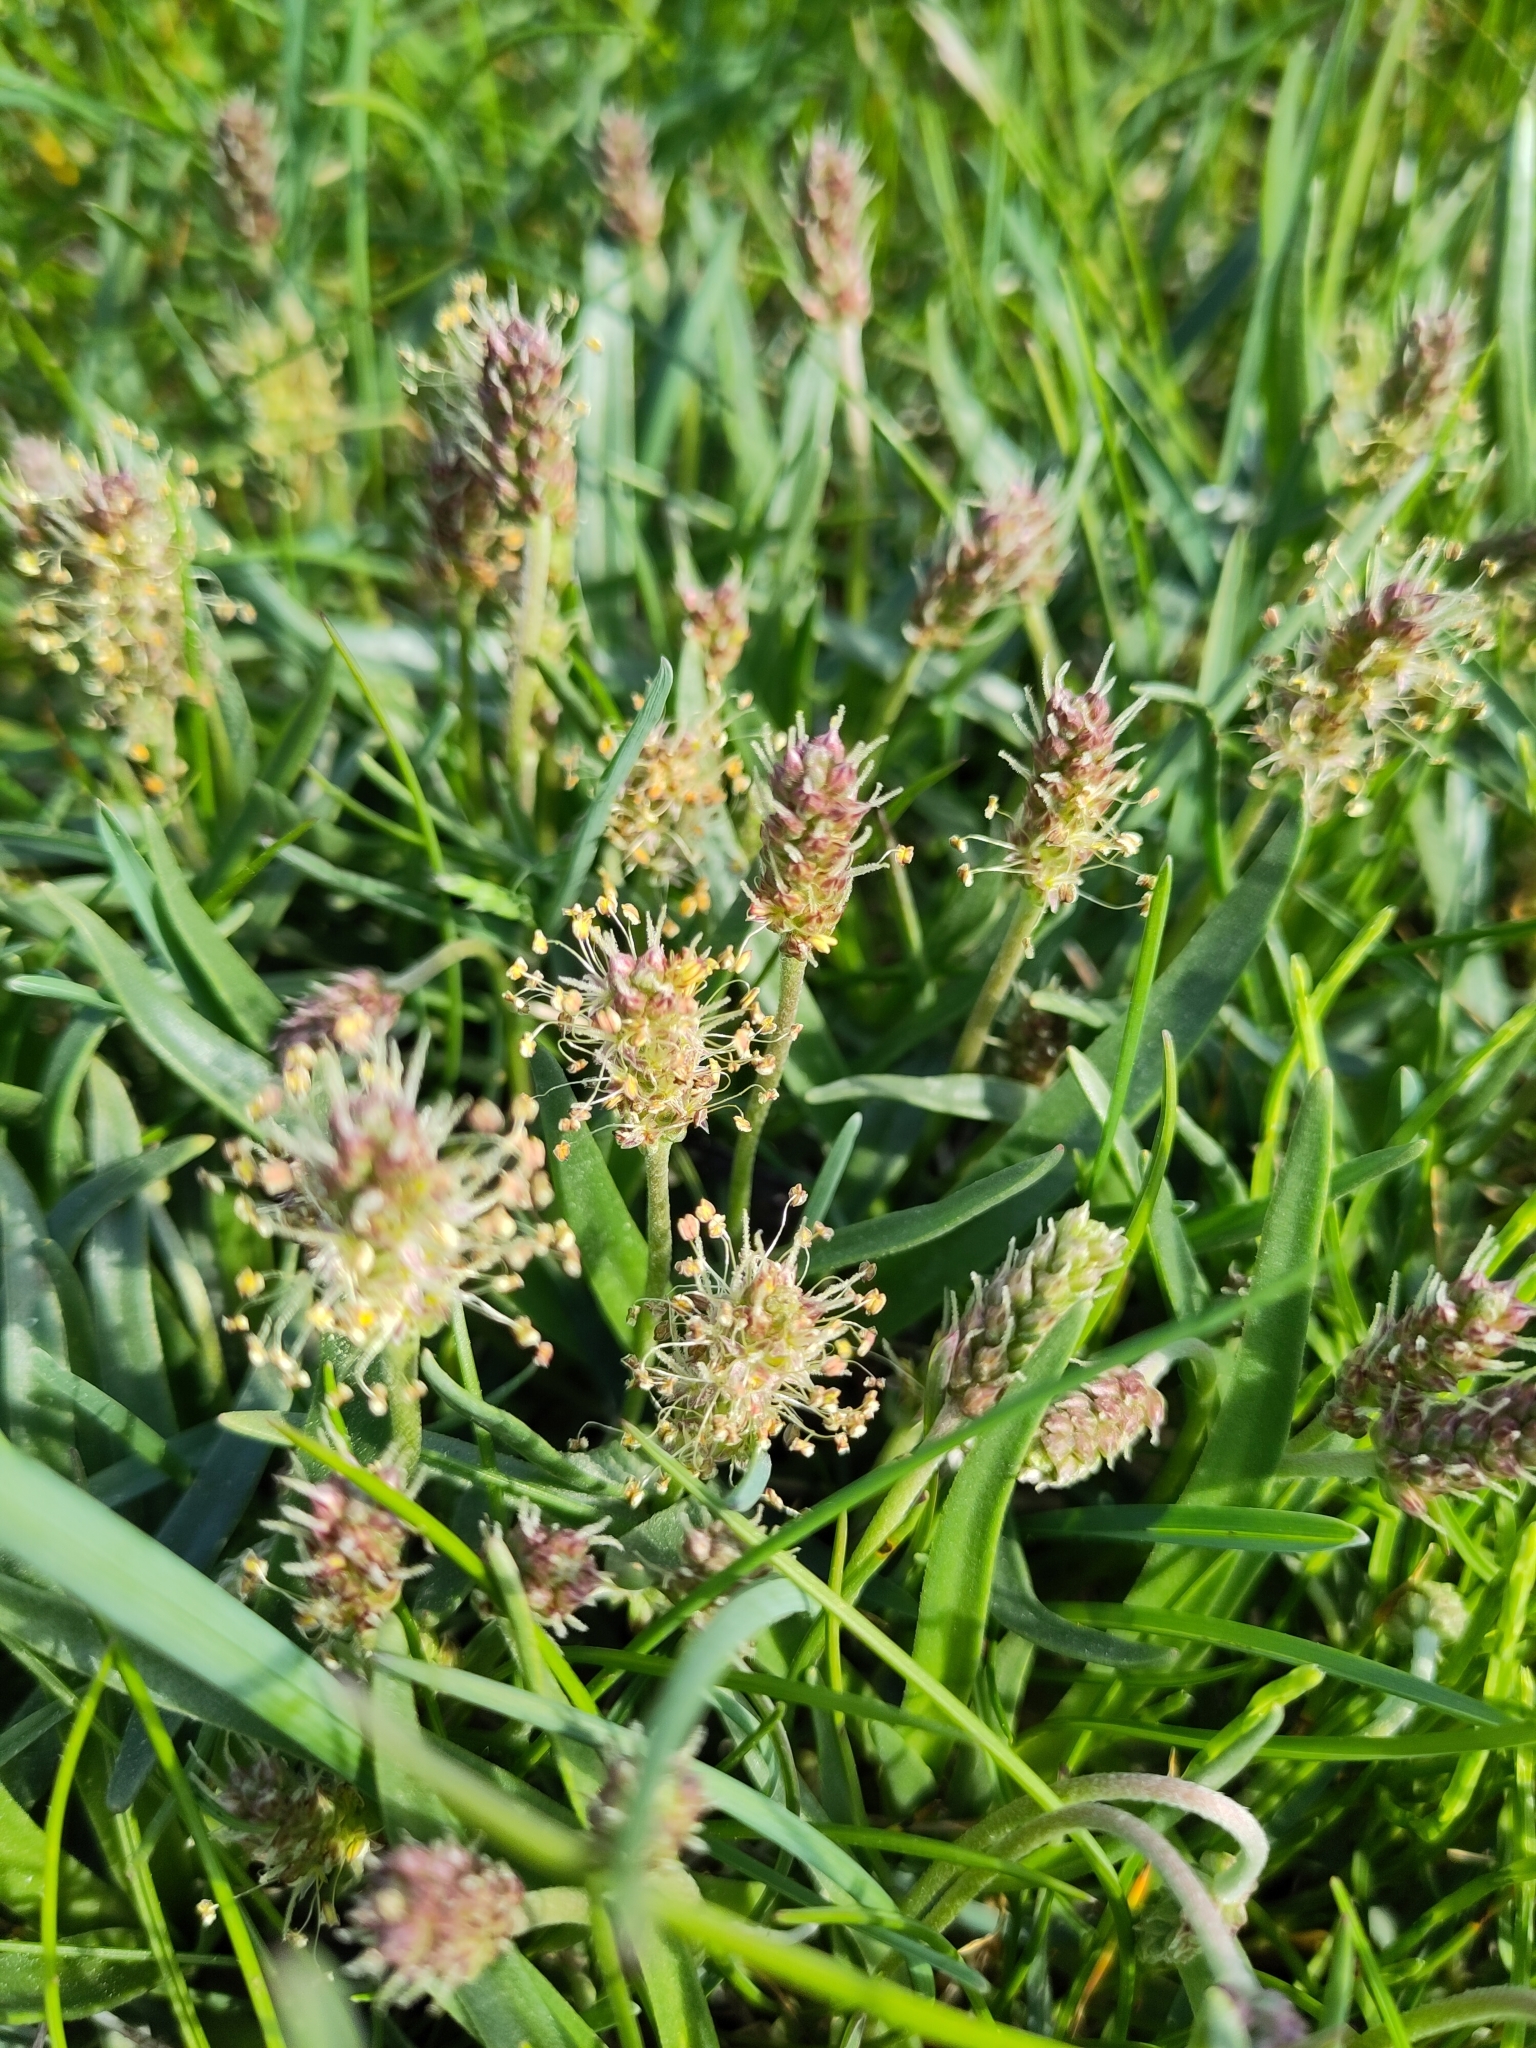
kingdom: Plantae
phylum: Tracheophyta
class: Magnoliopsida
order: Lamiales
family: Plantaginaceae
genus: Plantago
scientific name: Plantago maritima
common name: Sea plantain
